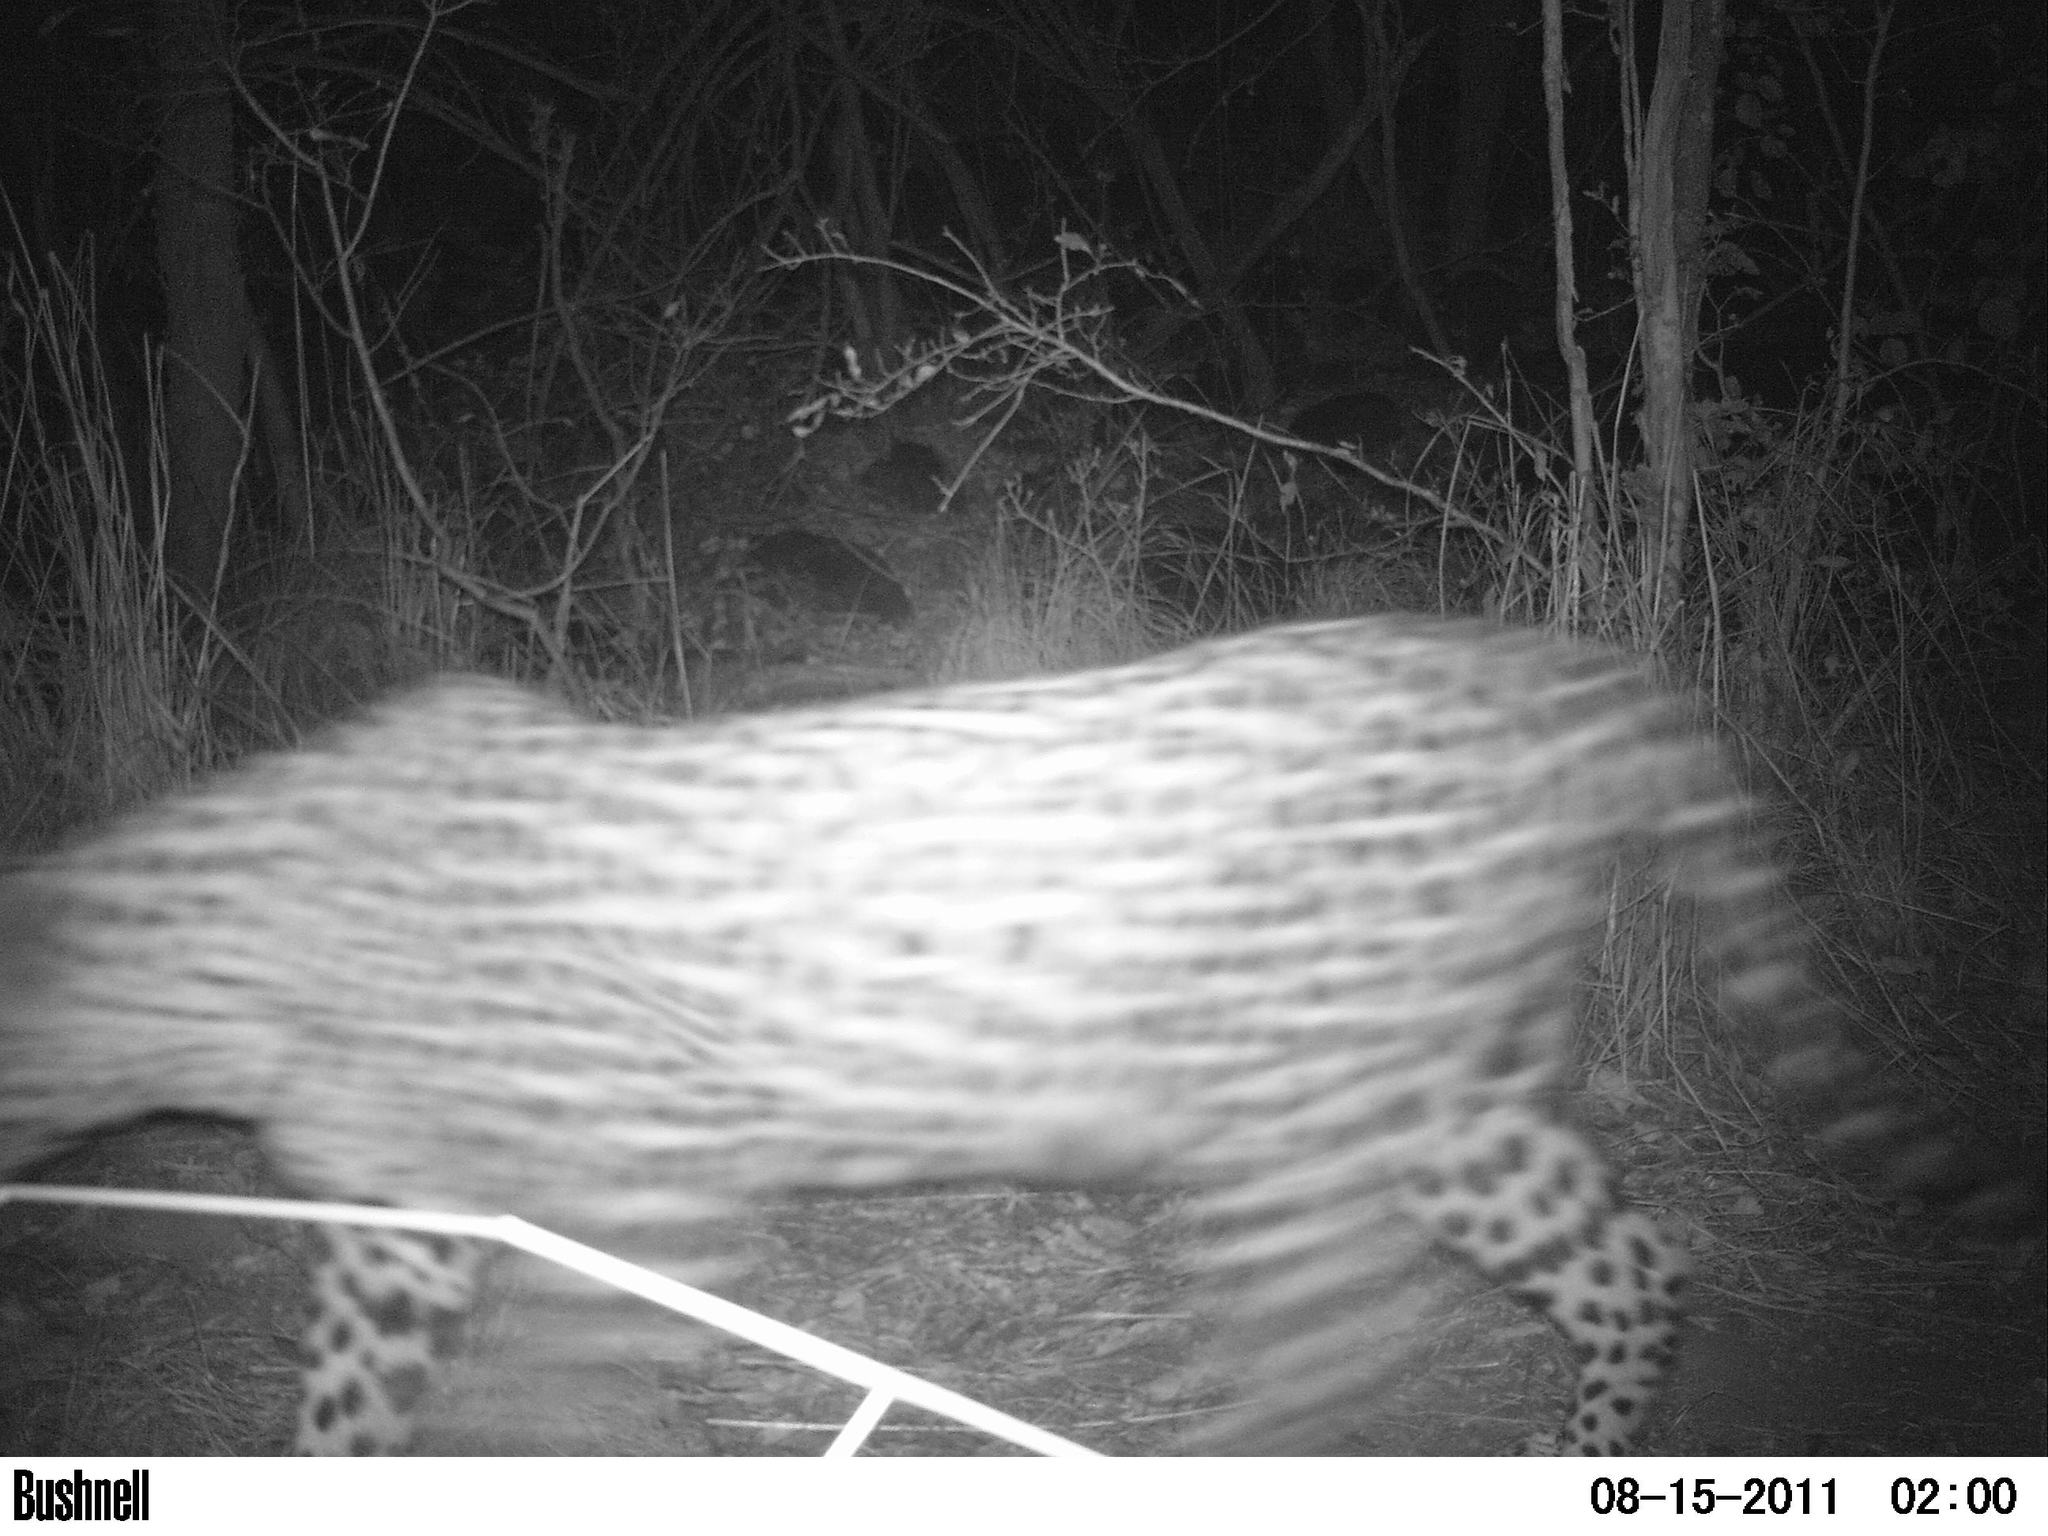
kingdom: Animalia
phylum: Chordata
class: Mammalia
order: Carnivora
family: Felidae
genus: Panthera
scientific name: Panthera pardus
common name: Leopard
